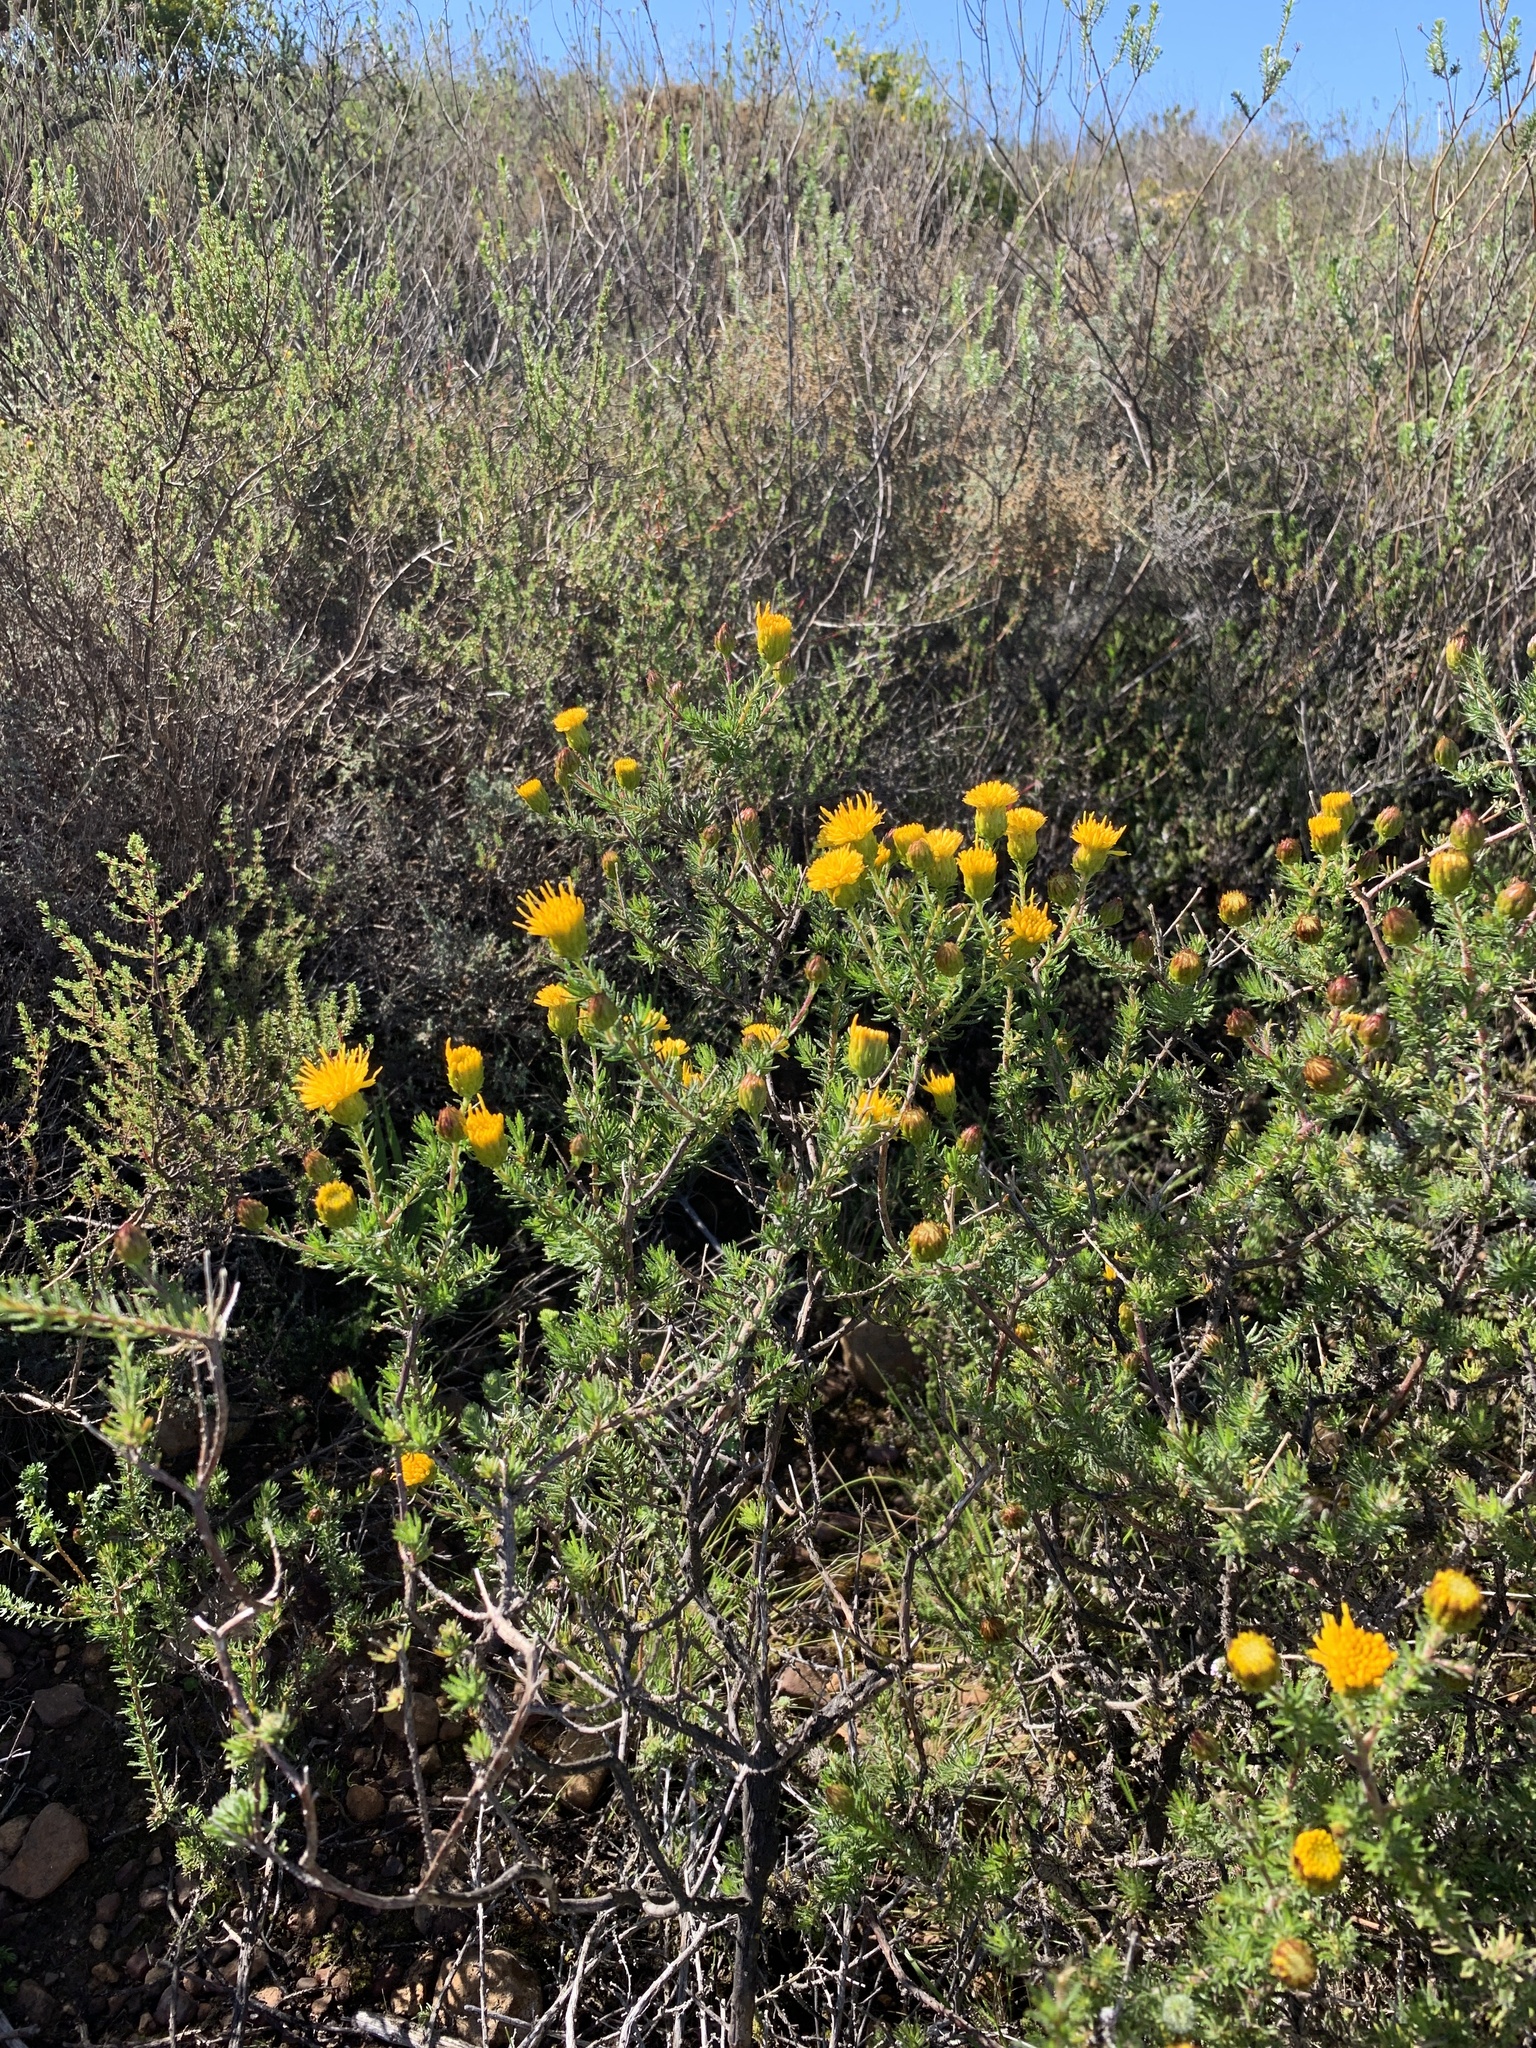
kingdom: Plantae
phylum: Tracheophyta
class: Magnoliopsida
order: Asterales
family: Asteraceae
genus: Pteronia
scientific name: Pteronia camphorata
